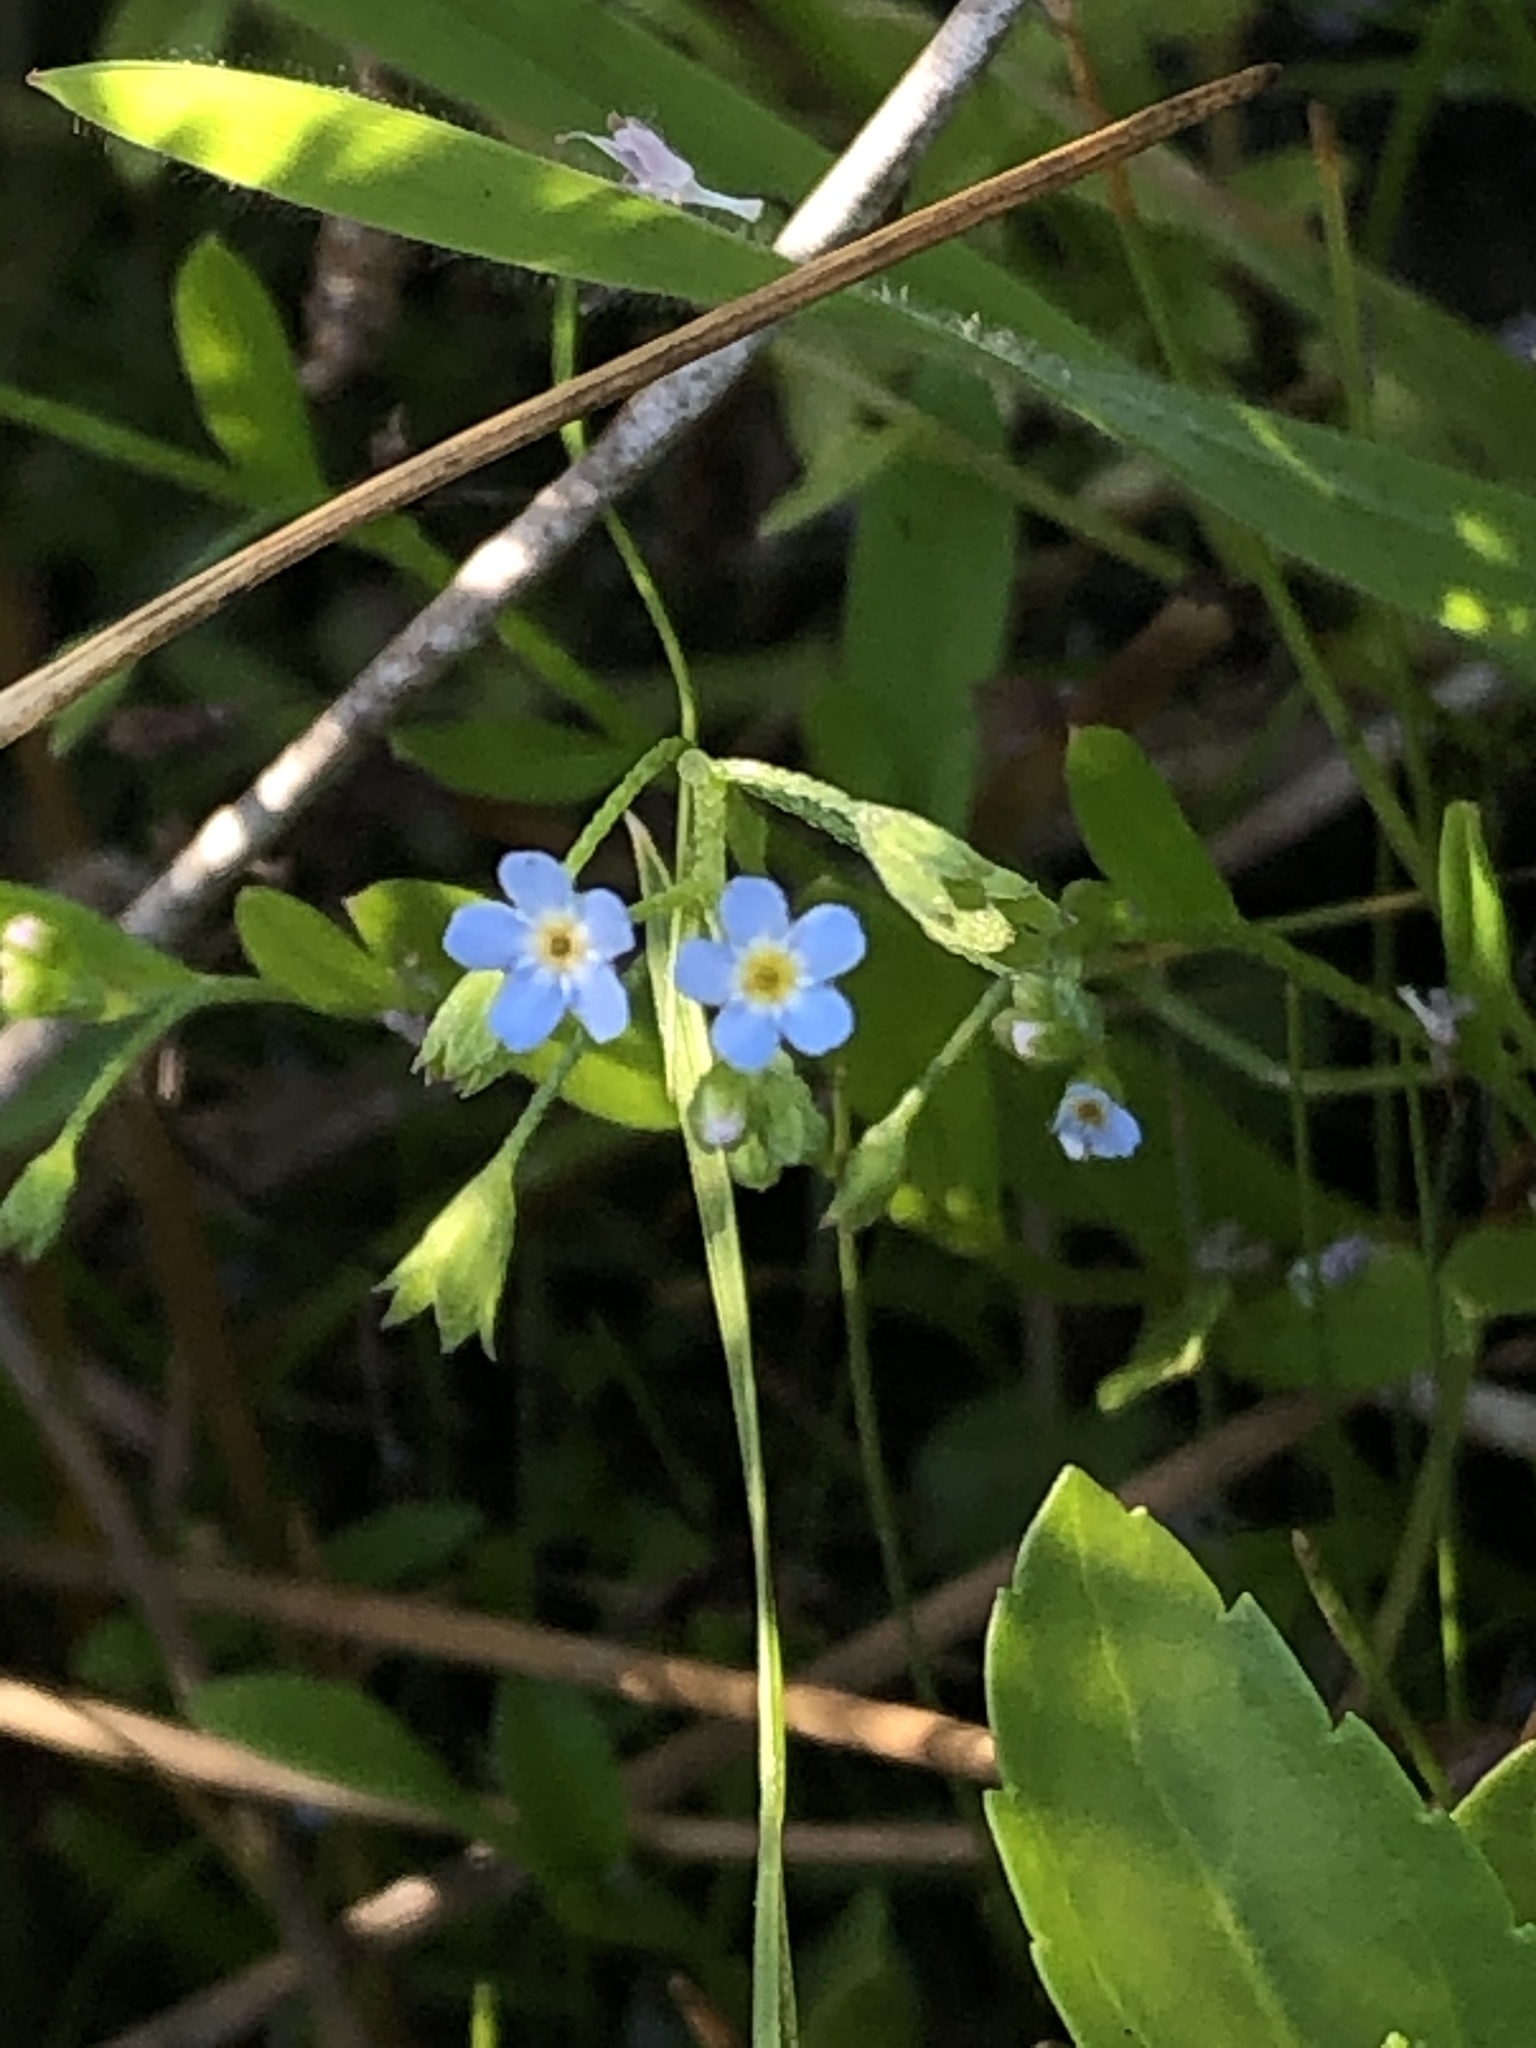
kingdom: Plantae
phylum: Tracheophyta
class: Magnoliopsida
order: Boraginales
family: Boraginaceae
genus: Myosotis
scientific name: Myosotis laxa
